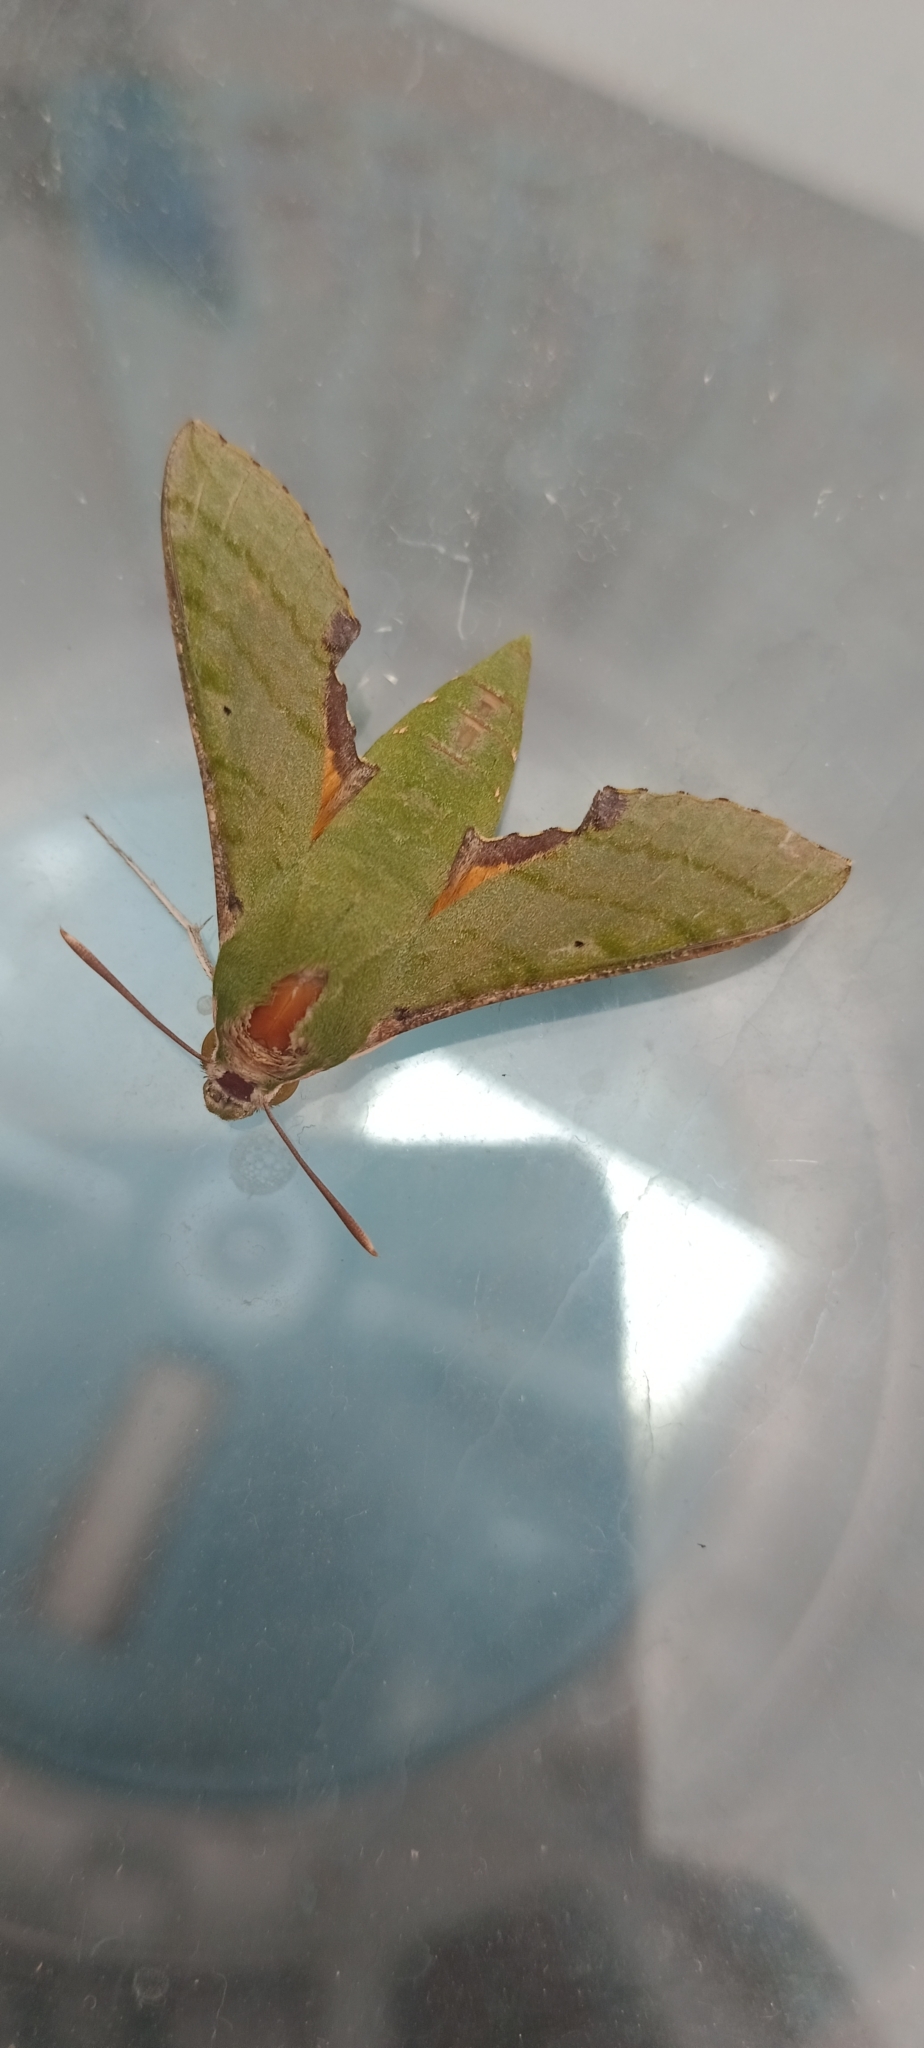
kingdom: Animalia
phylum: Arthropoda
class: Insecta
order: Lepidoptera
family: Sphingidae
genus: Basiothia
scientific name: Basiothia medea
